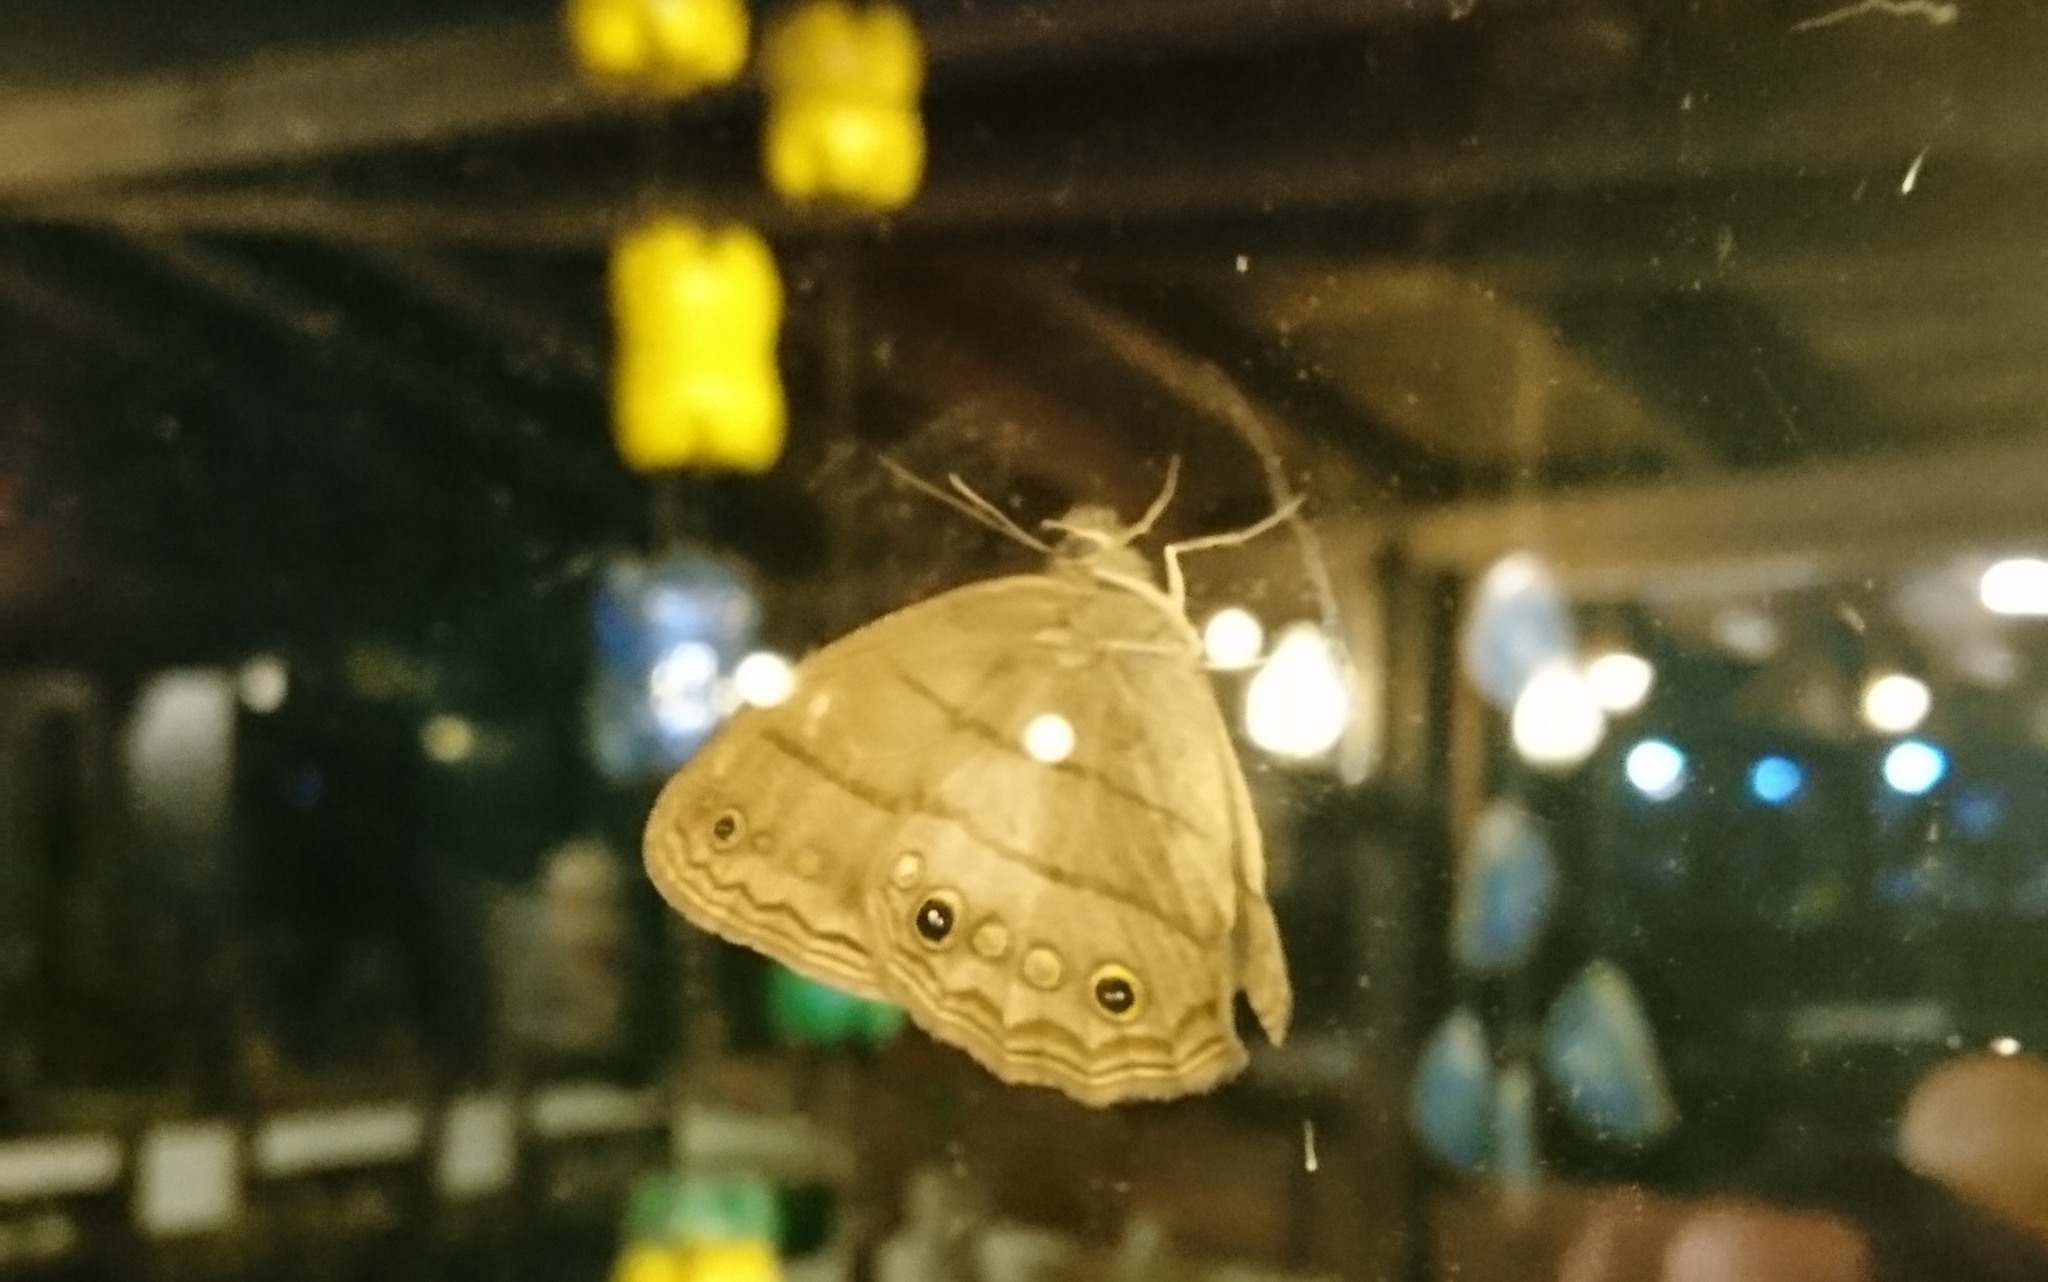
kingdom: Animalia
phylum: Arthropoda
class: Insecta
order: Lepidoptera
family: Nymphalidae
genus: Malaveria
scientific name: Malaveria
